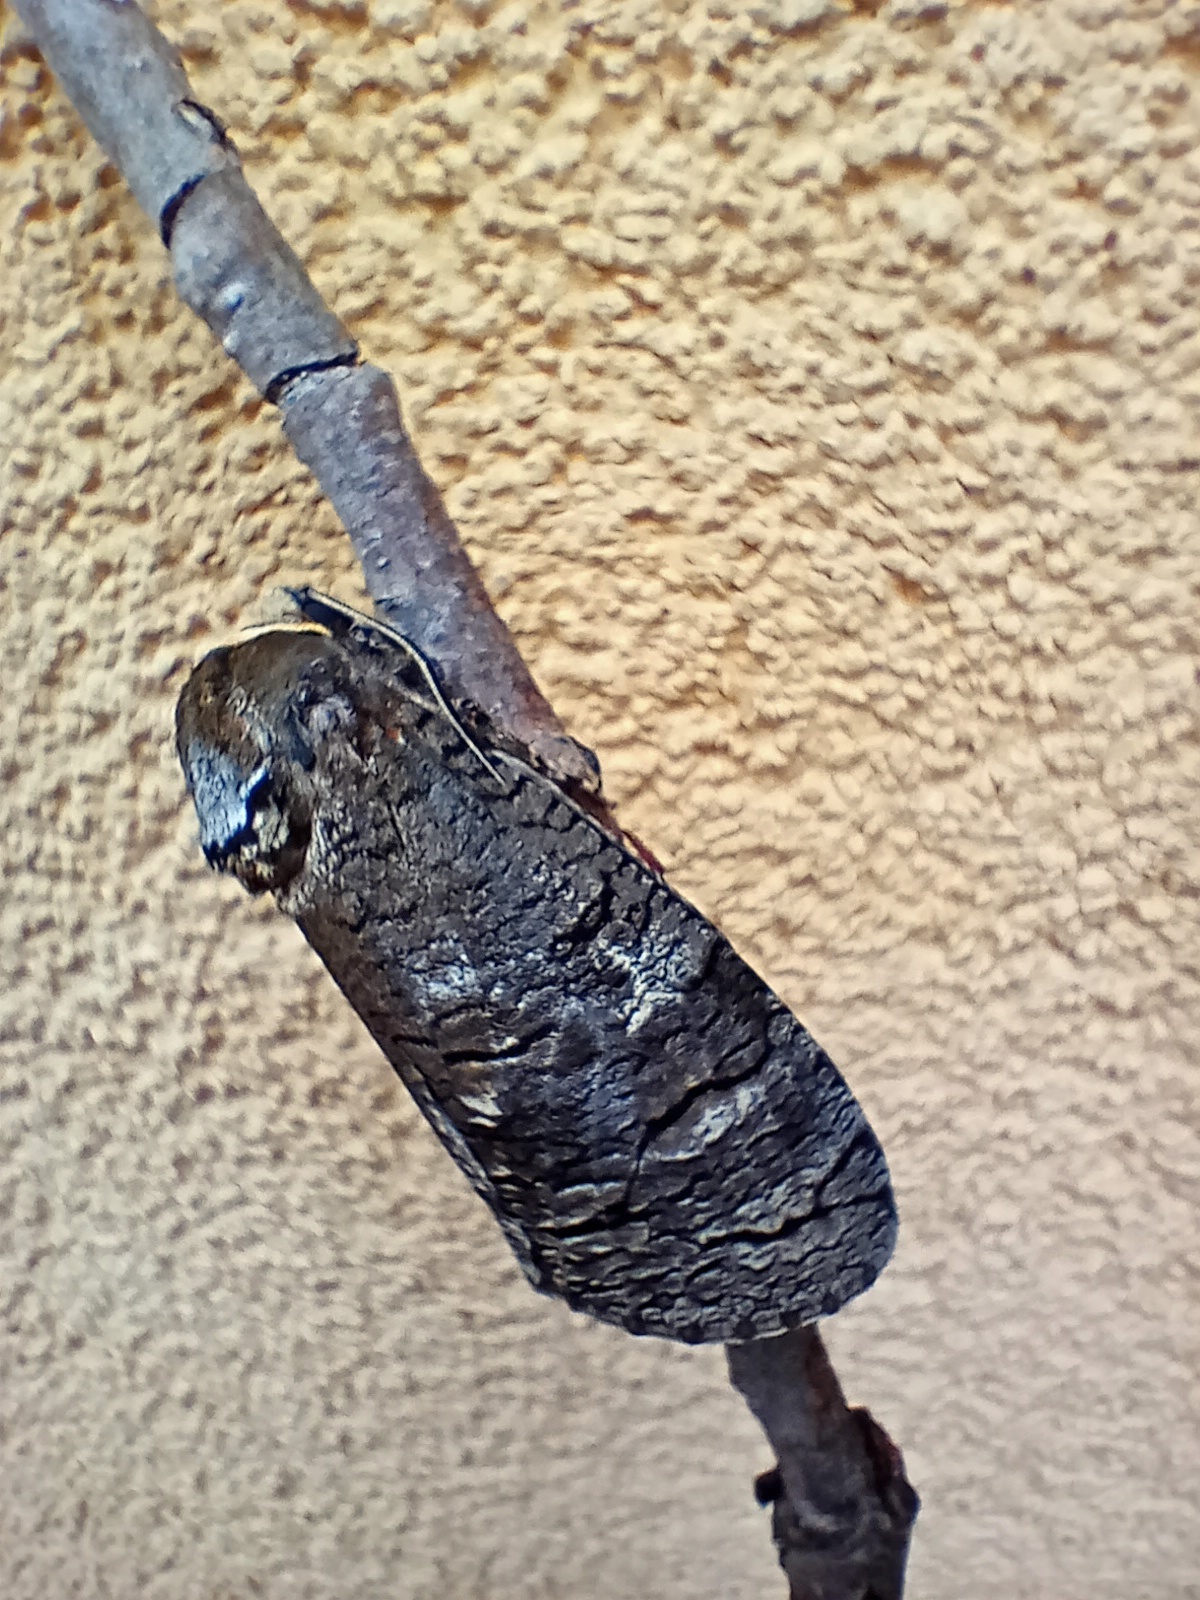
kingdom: Animalia
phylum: Arthropoda
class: Insecta
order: Lepidoptera
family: Cossidae
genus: Cossus
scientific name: Cossus cossus
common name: Goat moth
